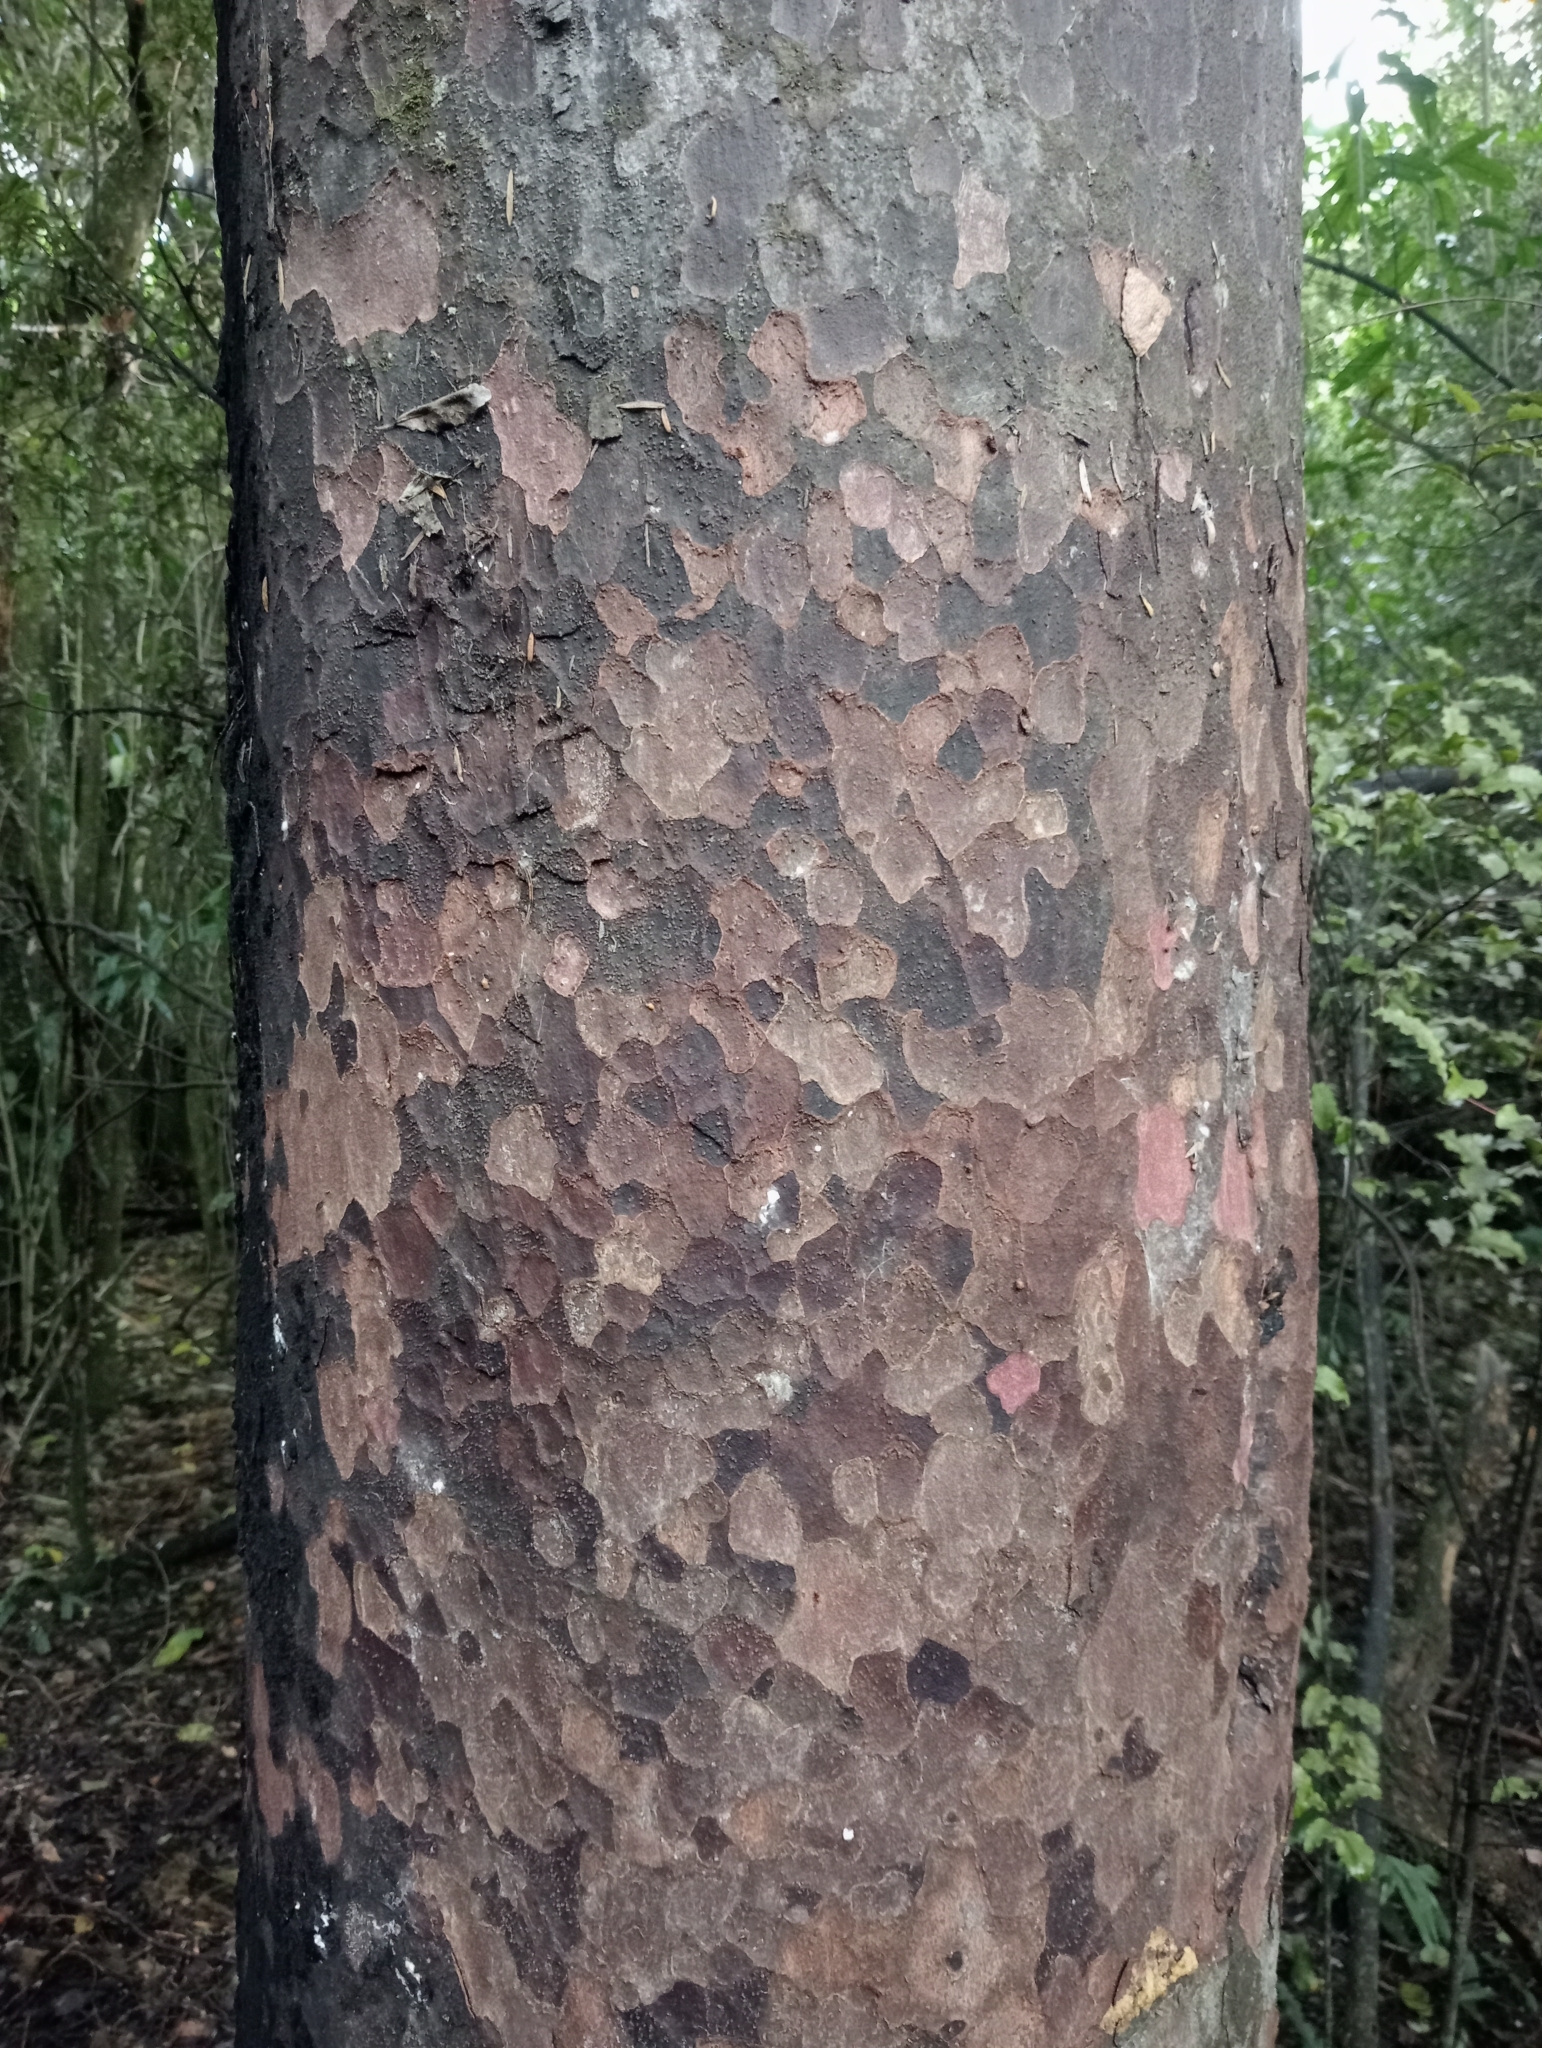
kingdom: Plantae
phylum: Tracheophyta
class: Pinopsida
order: Pinales
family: Podocarpaceae
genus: Prumnopitys
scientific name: Prumnopitys taxifolia
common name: Matai
